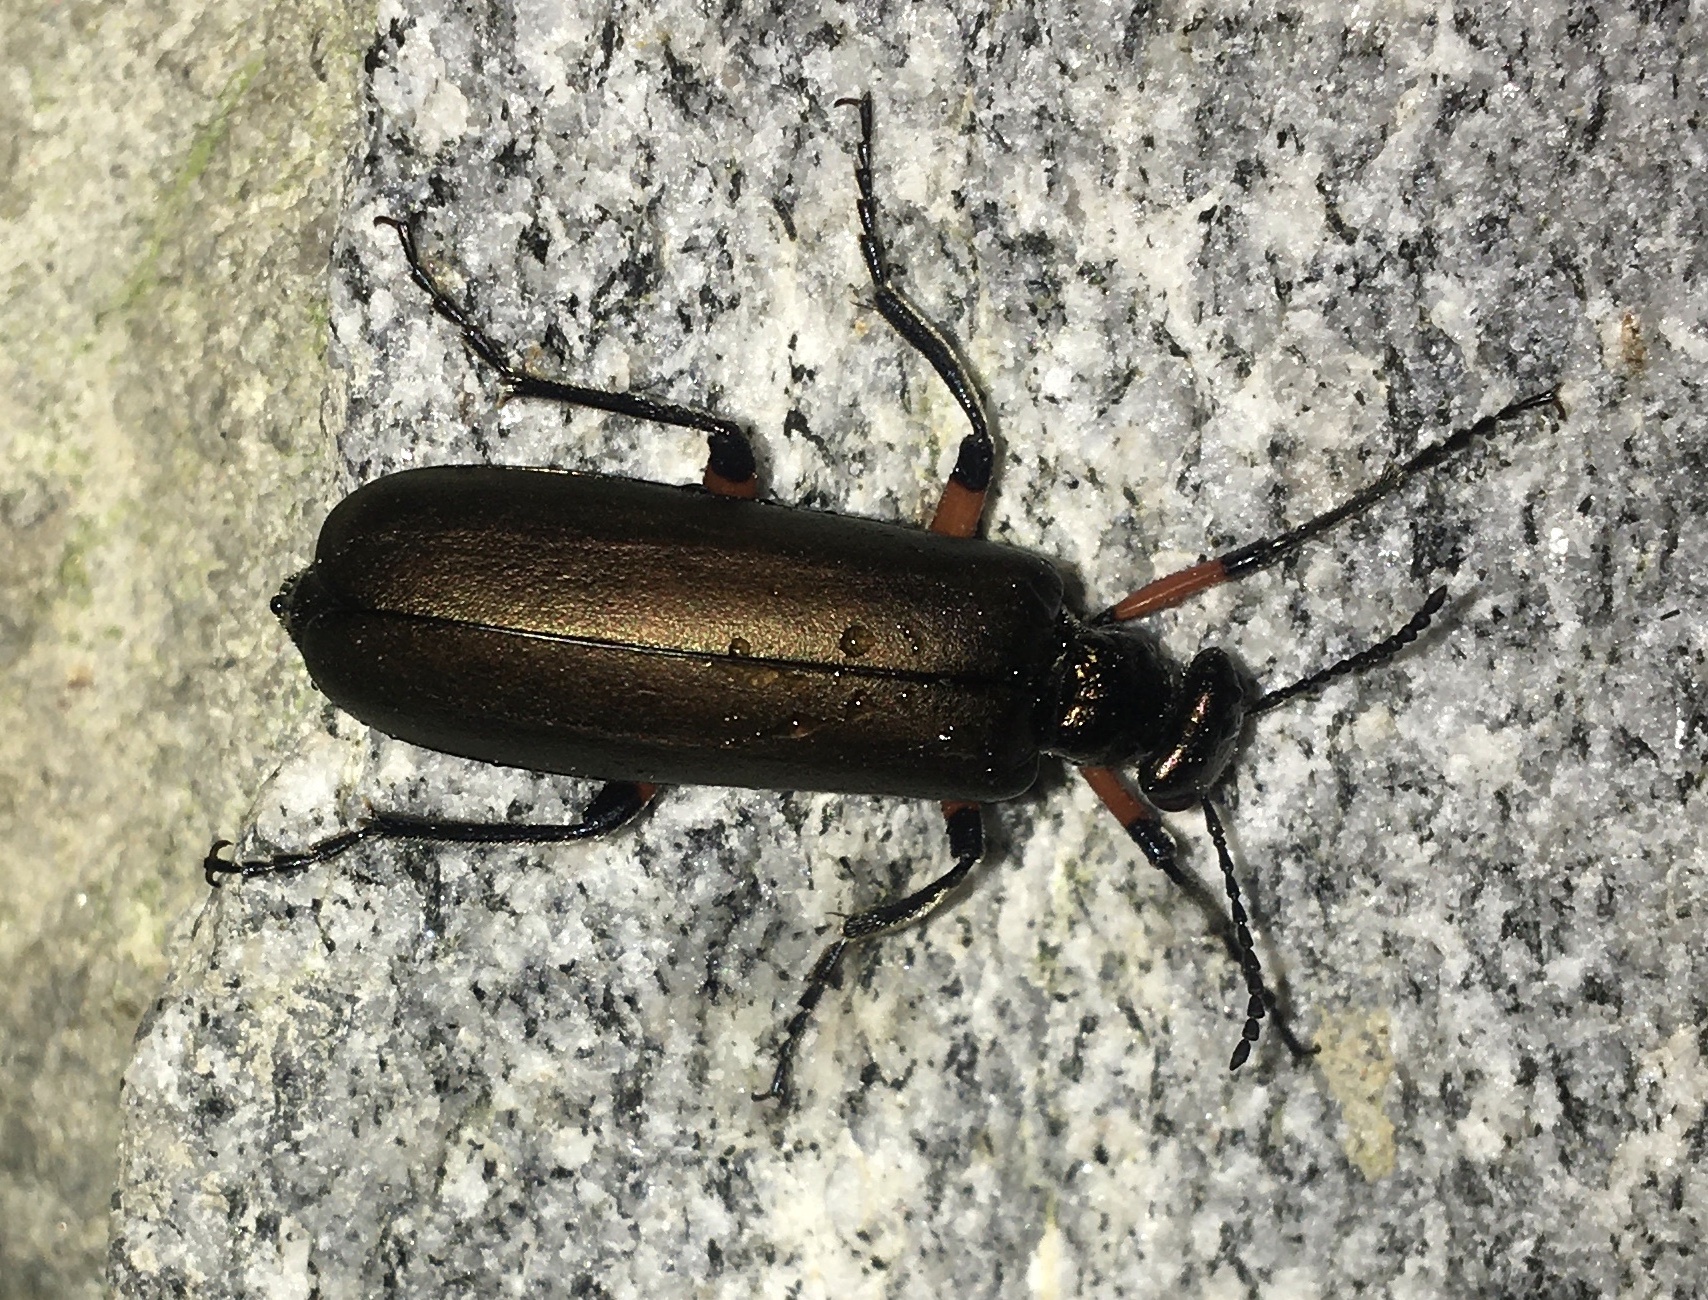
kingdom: Animalia
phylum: Arthropoda
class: Insecta
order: Coleoptera
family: Meloidae
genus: Lytta
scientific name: Lytta polita
